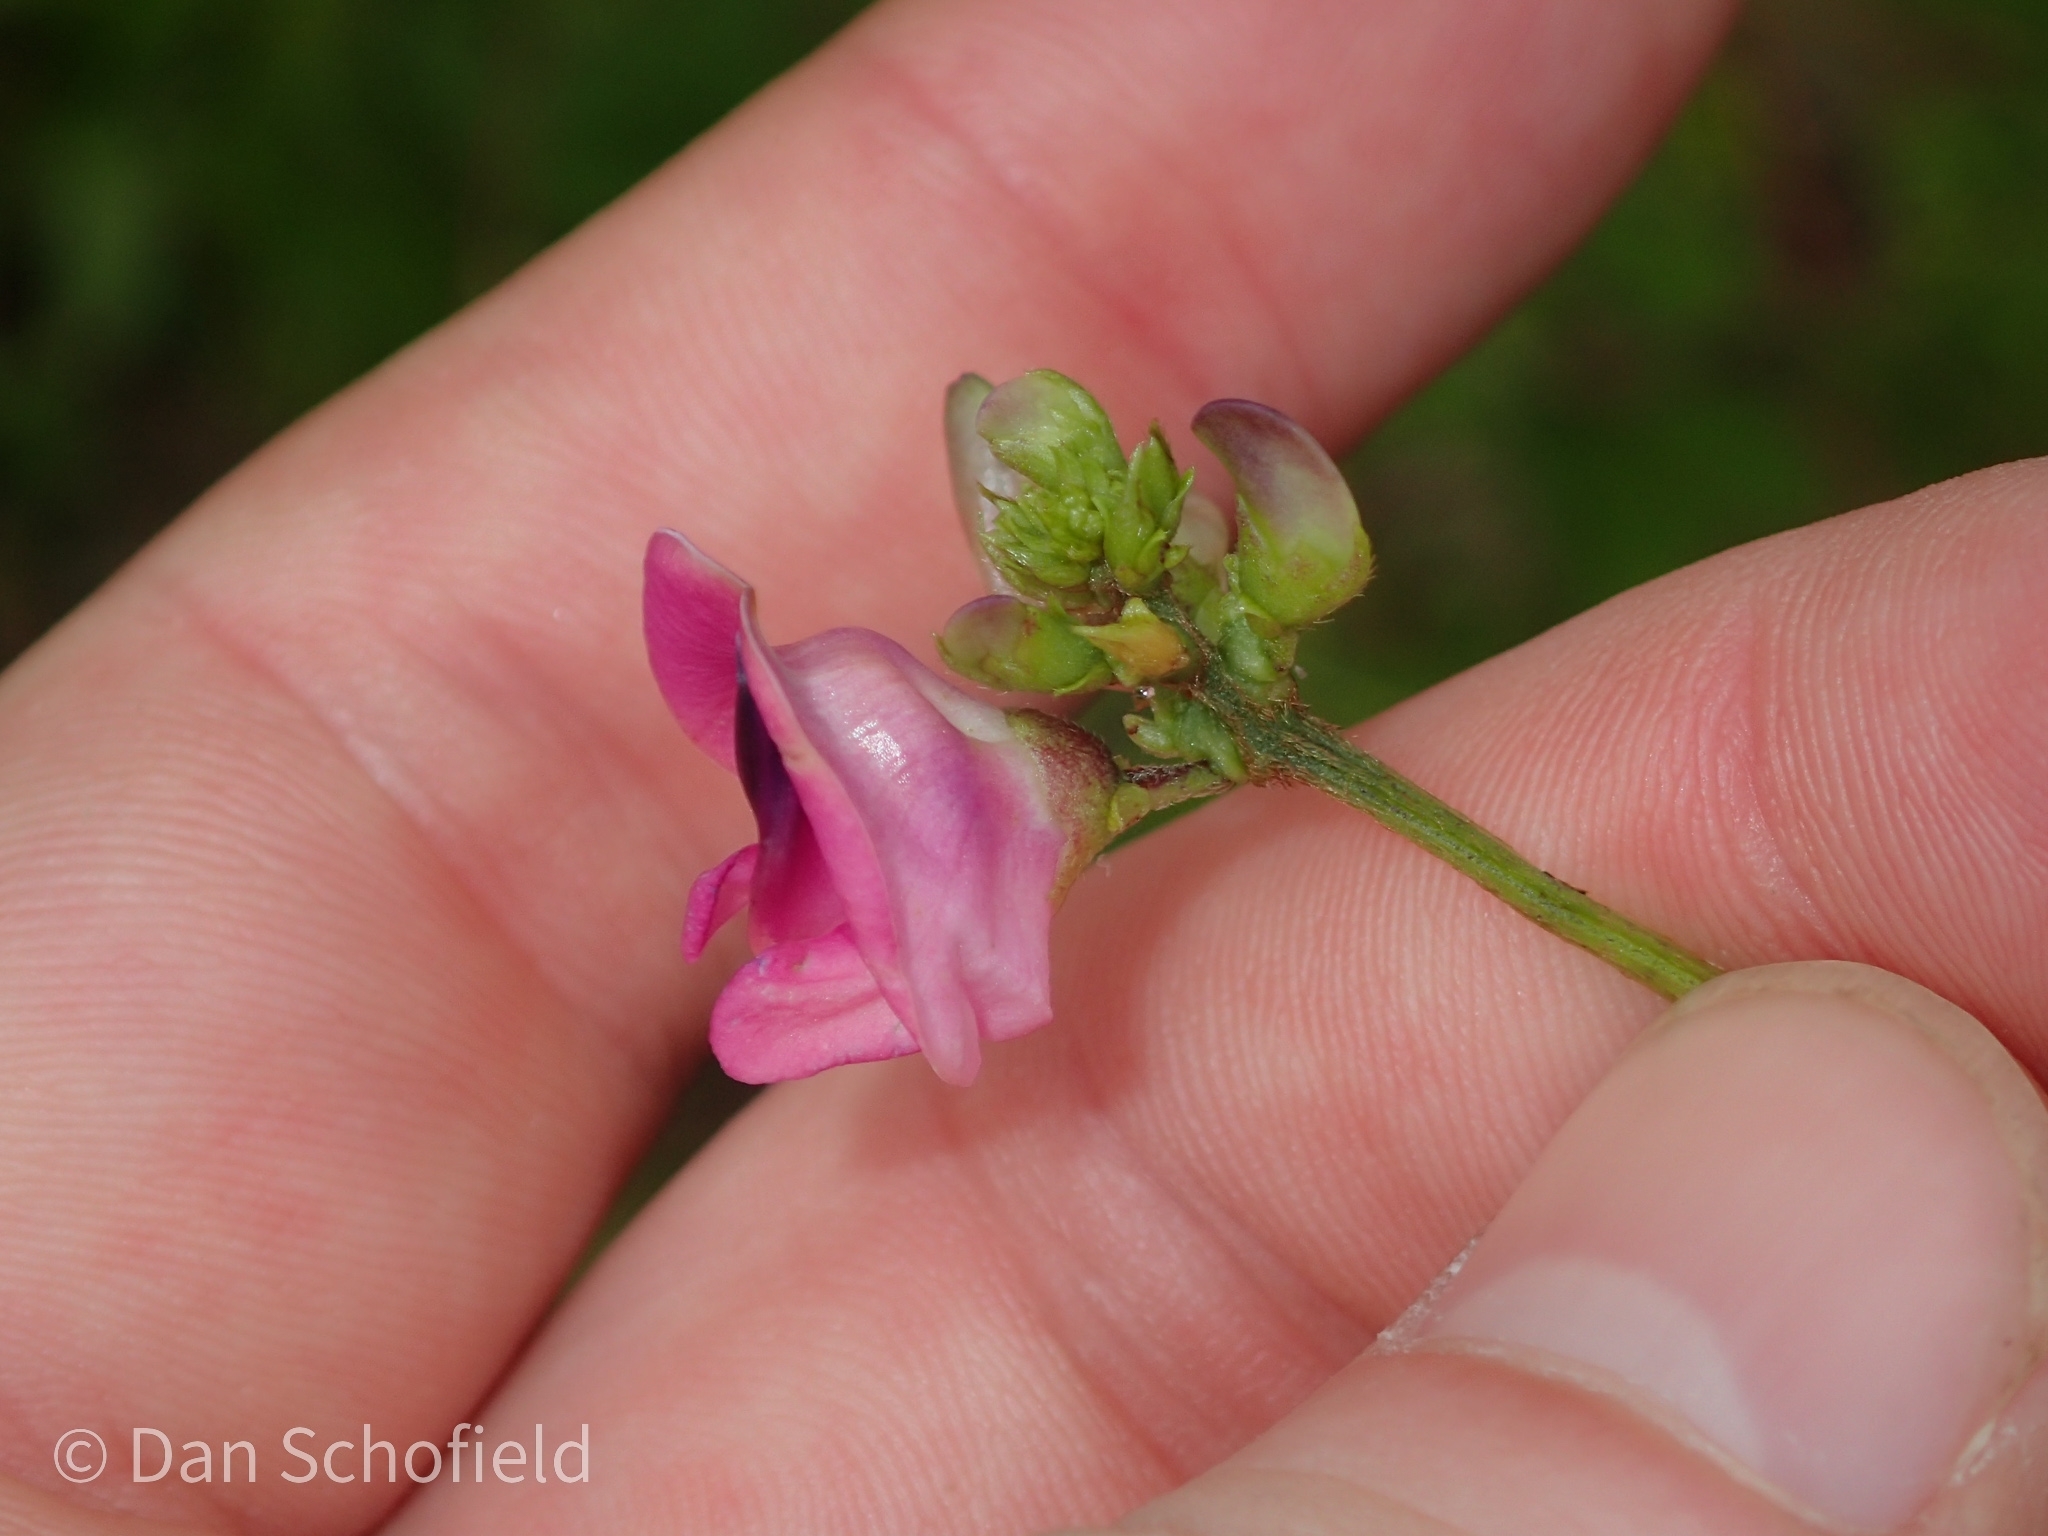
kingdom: Plantae
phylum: Tracheophyta
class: Magnoliopsida
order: Fabales
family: Fabaceae
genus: Strophostyles
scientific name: Strophostyles umbellata
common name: Perennial wild bean
